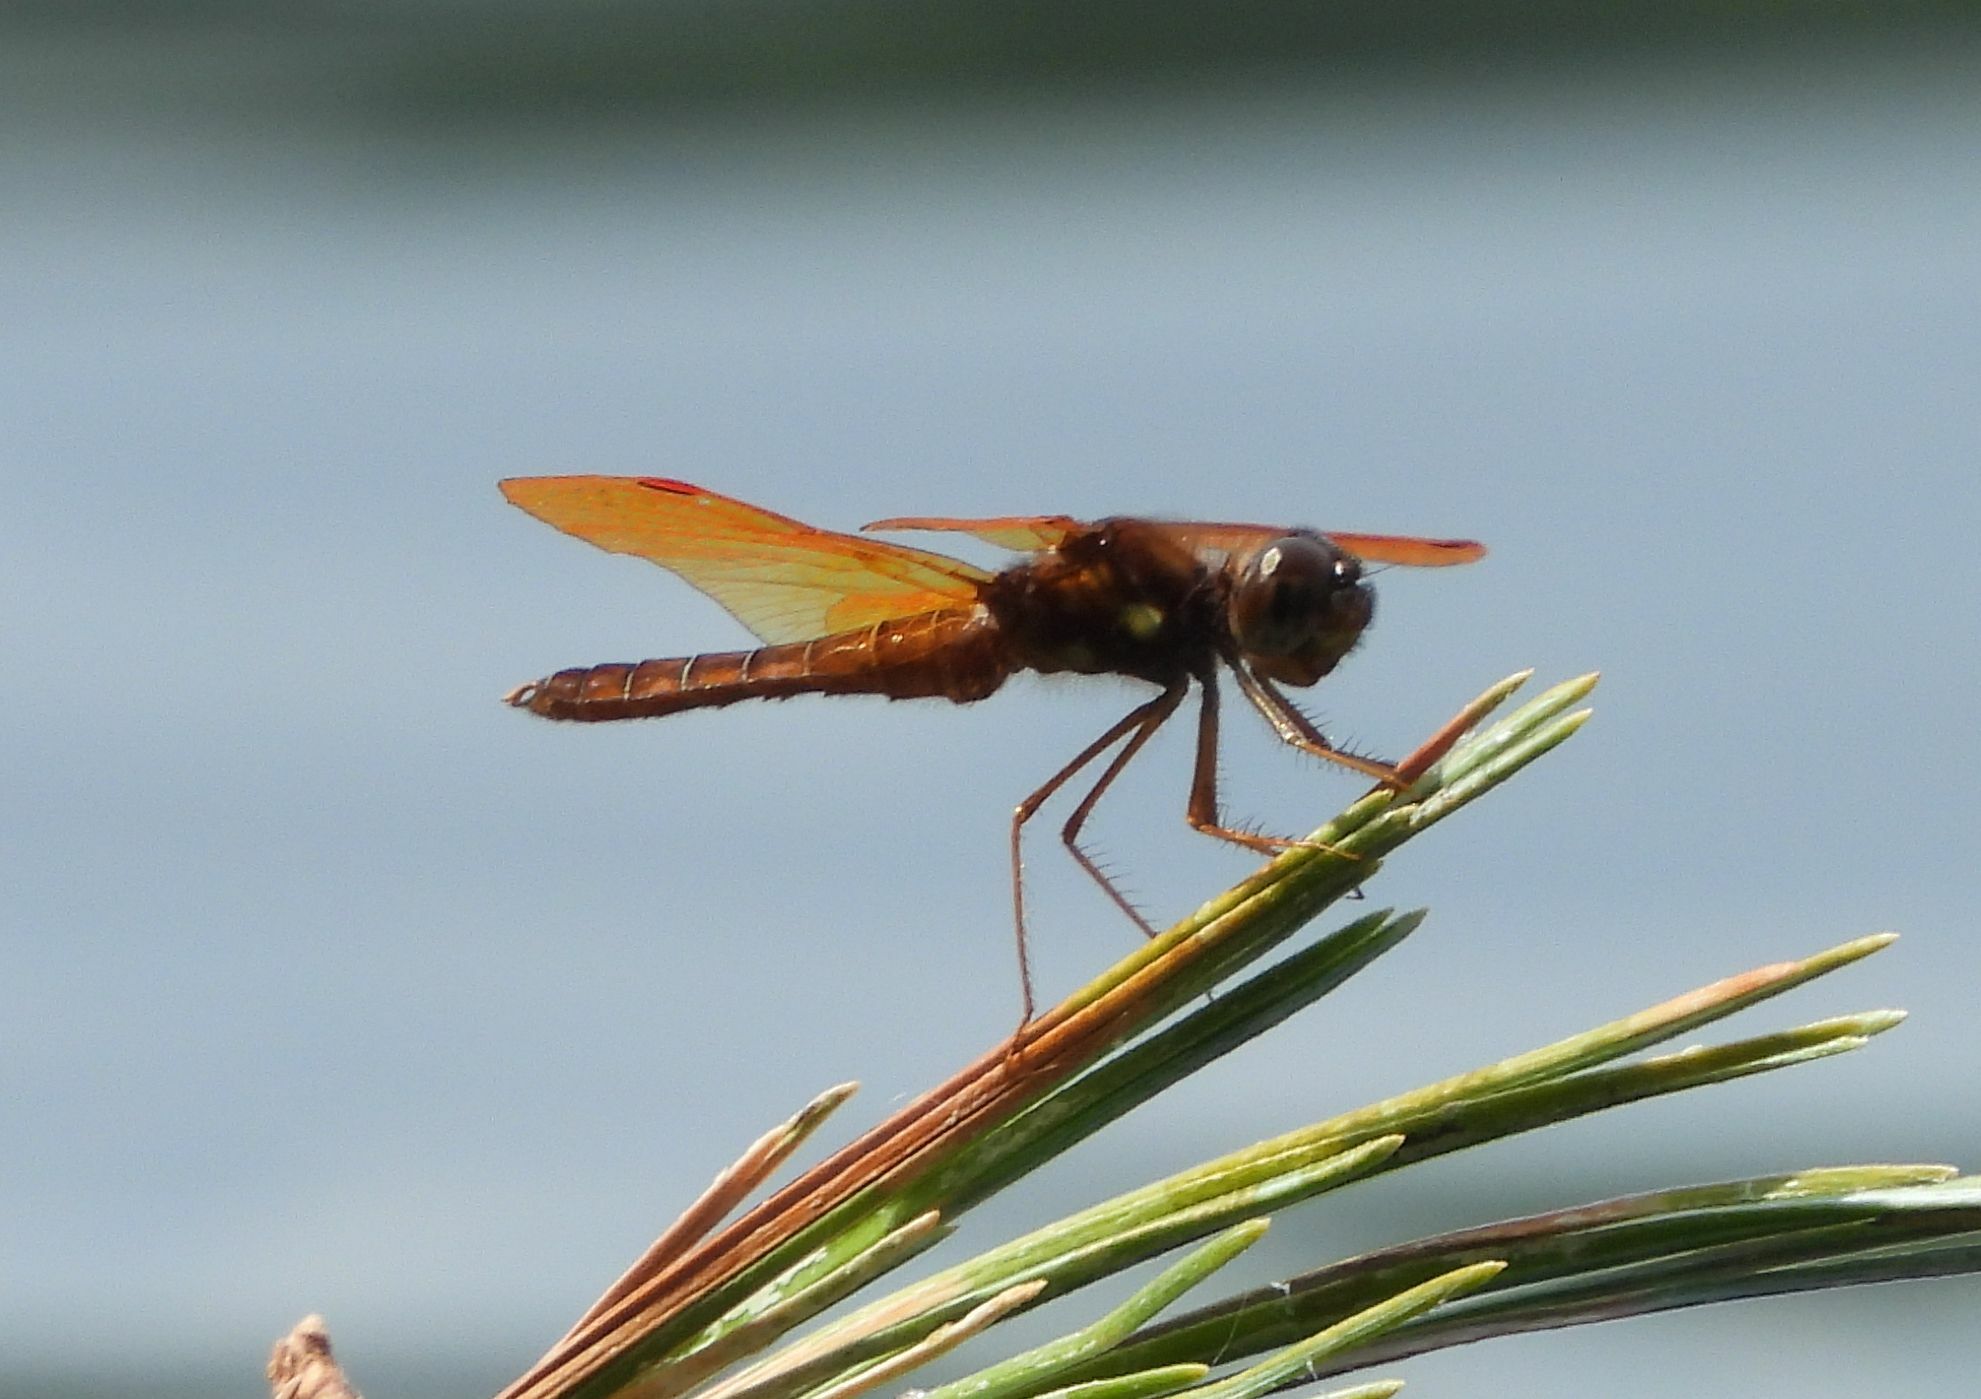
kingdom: Animalia
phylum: Arthropoda
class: Insecta
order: Odonata
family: Libellulidae
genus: Perithemis
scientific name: Perithemis tenera
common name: Eastern amberwing
